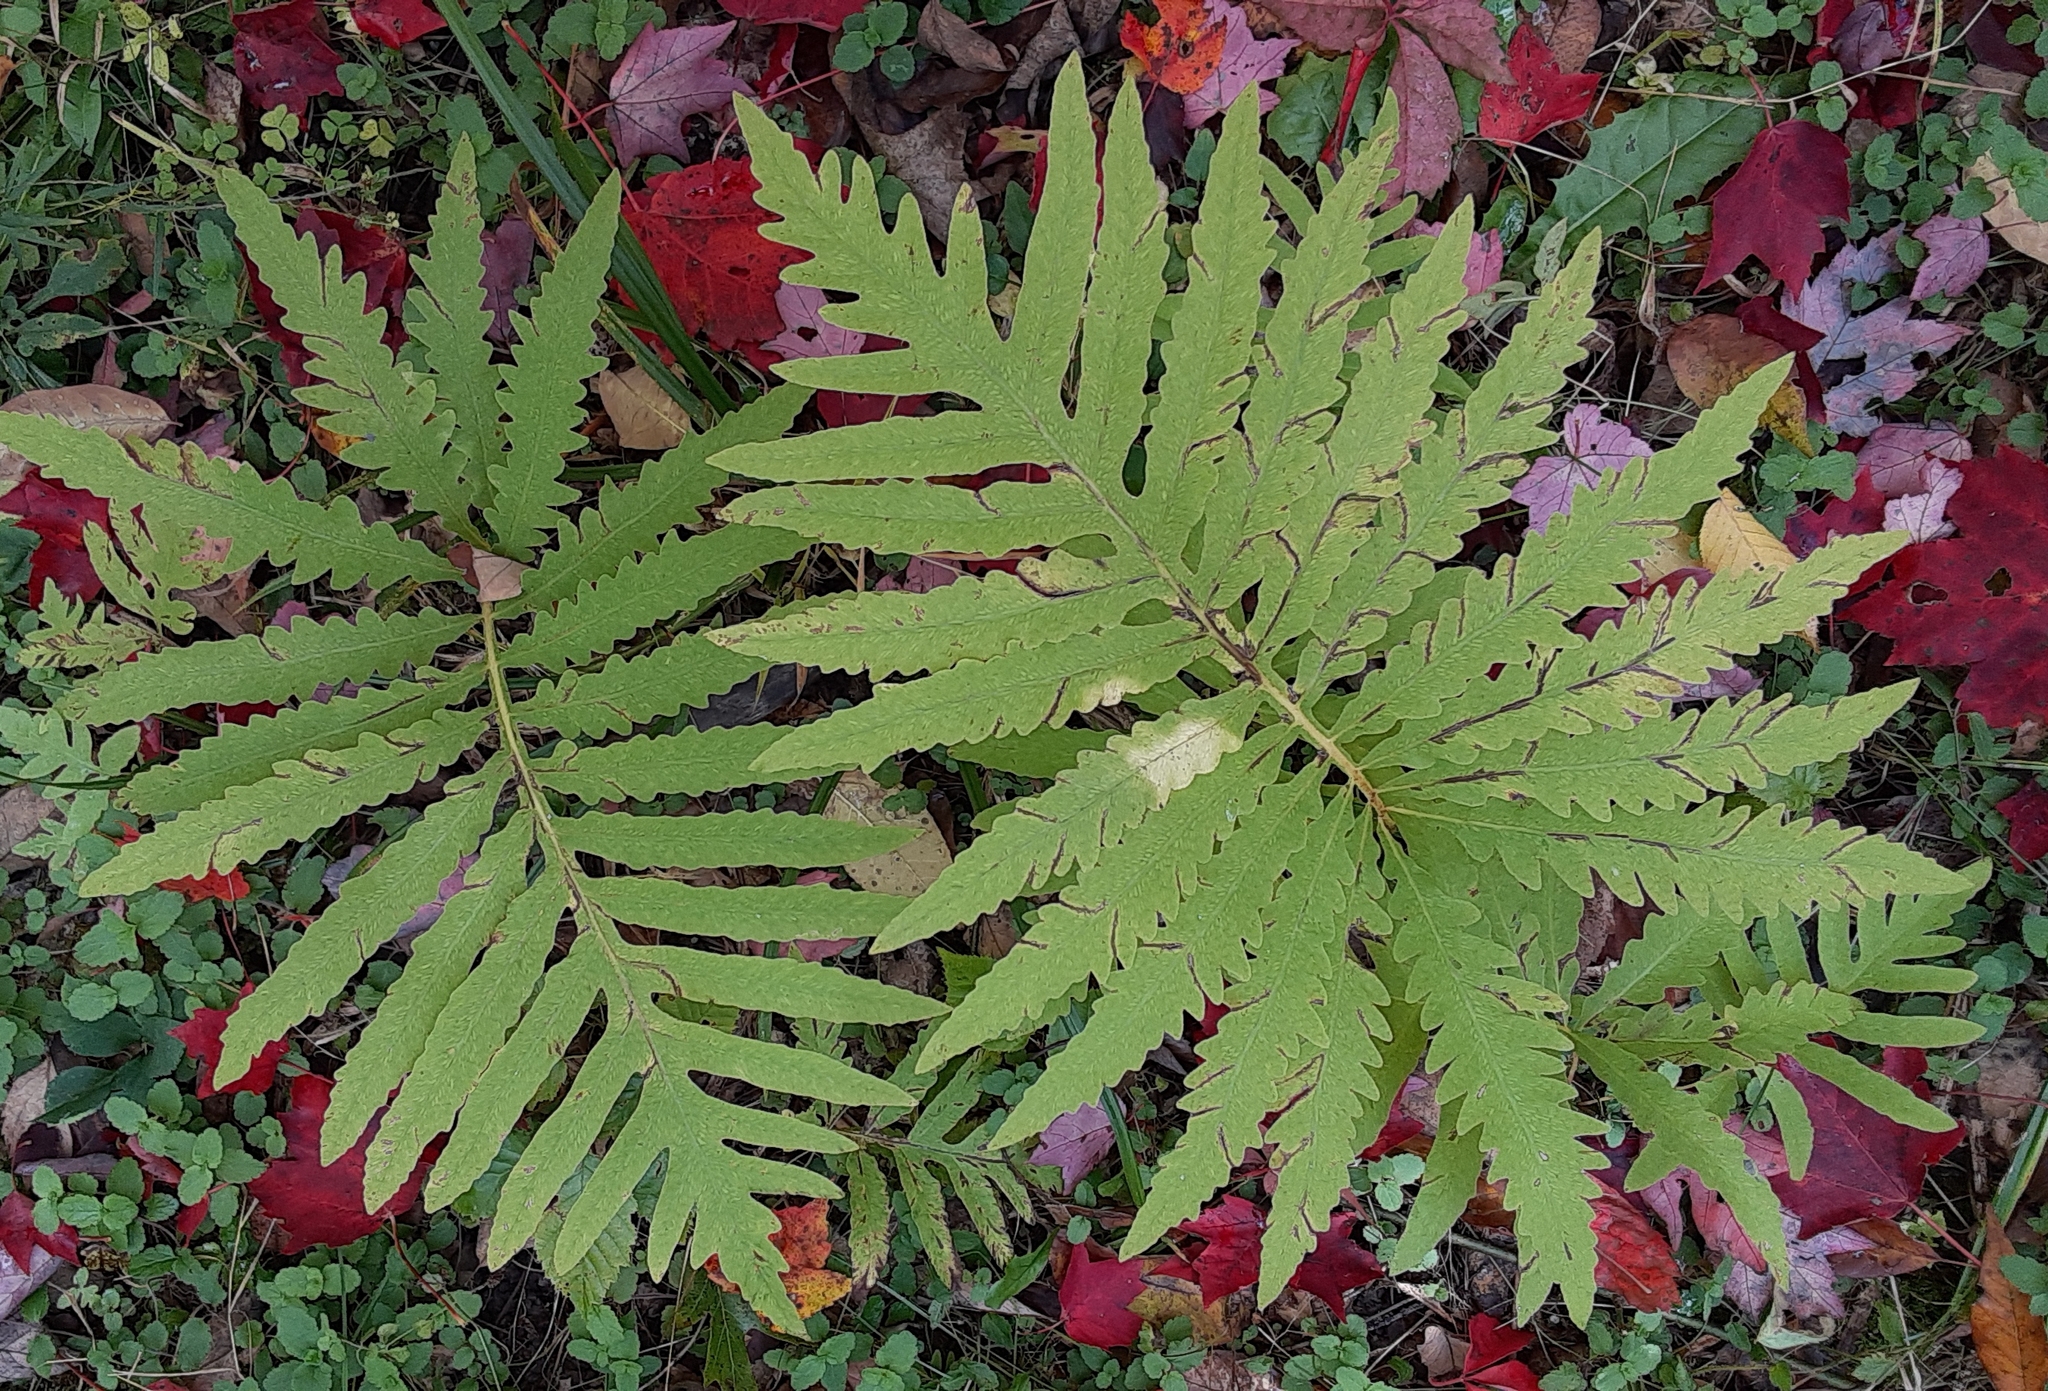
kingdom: Plantae
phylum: Tracheophyta
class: Polypodiopsida
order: Polypodiales
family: Onocleaceae
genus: Onoclea
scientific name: Onoclea sensibilis
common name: Sensitive fern
